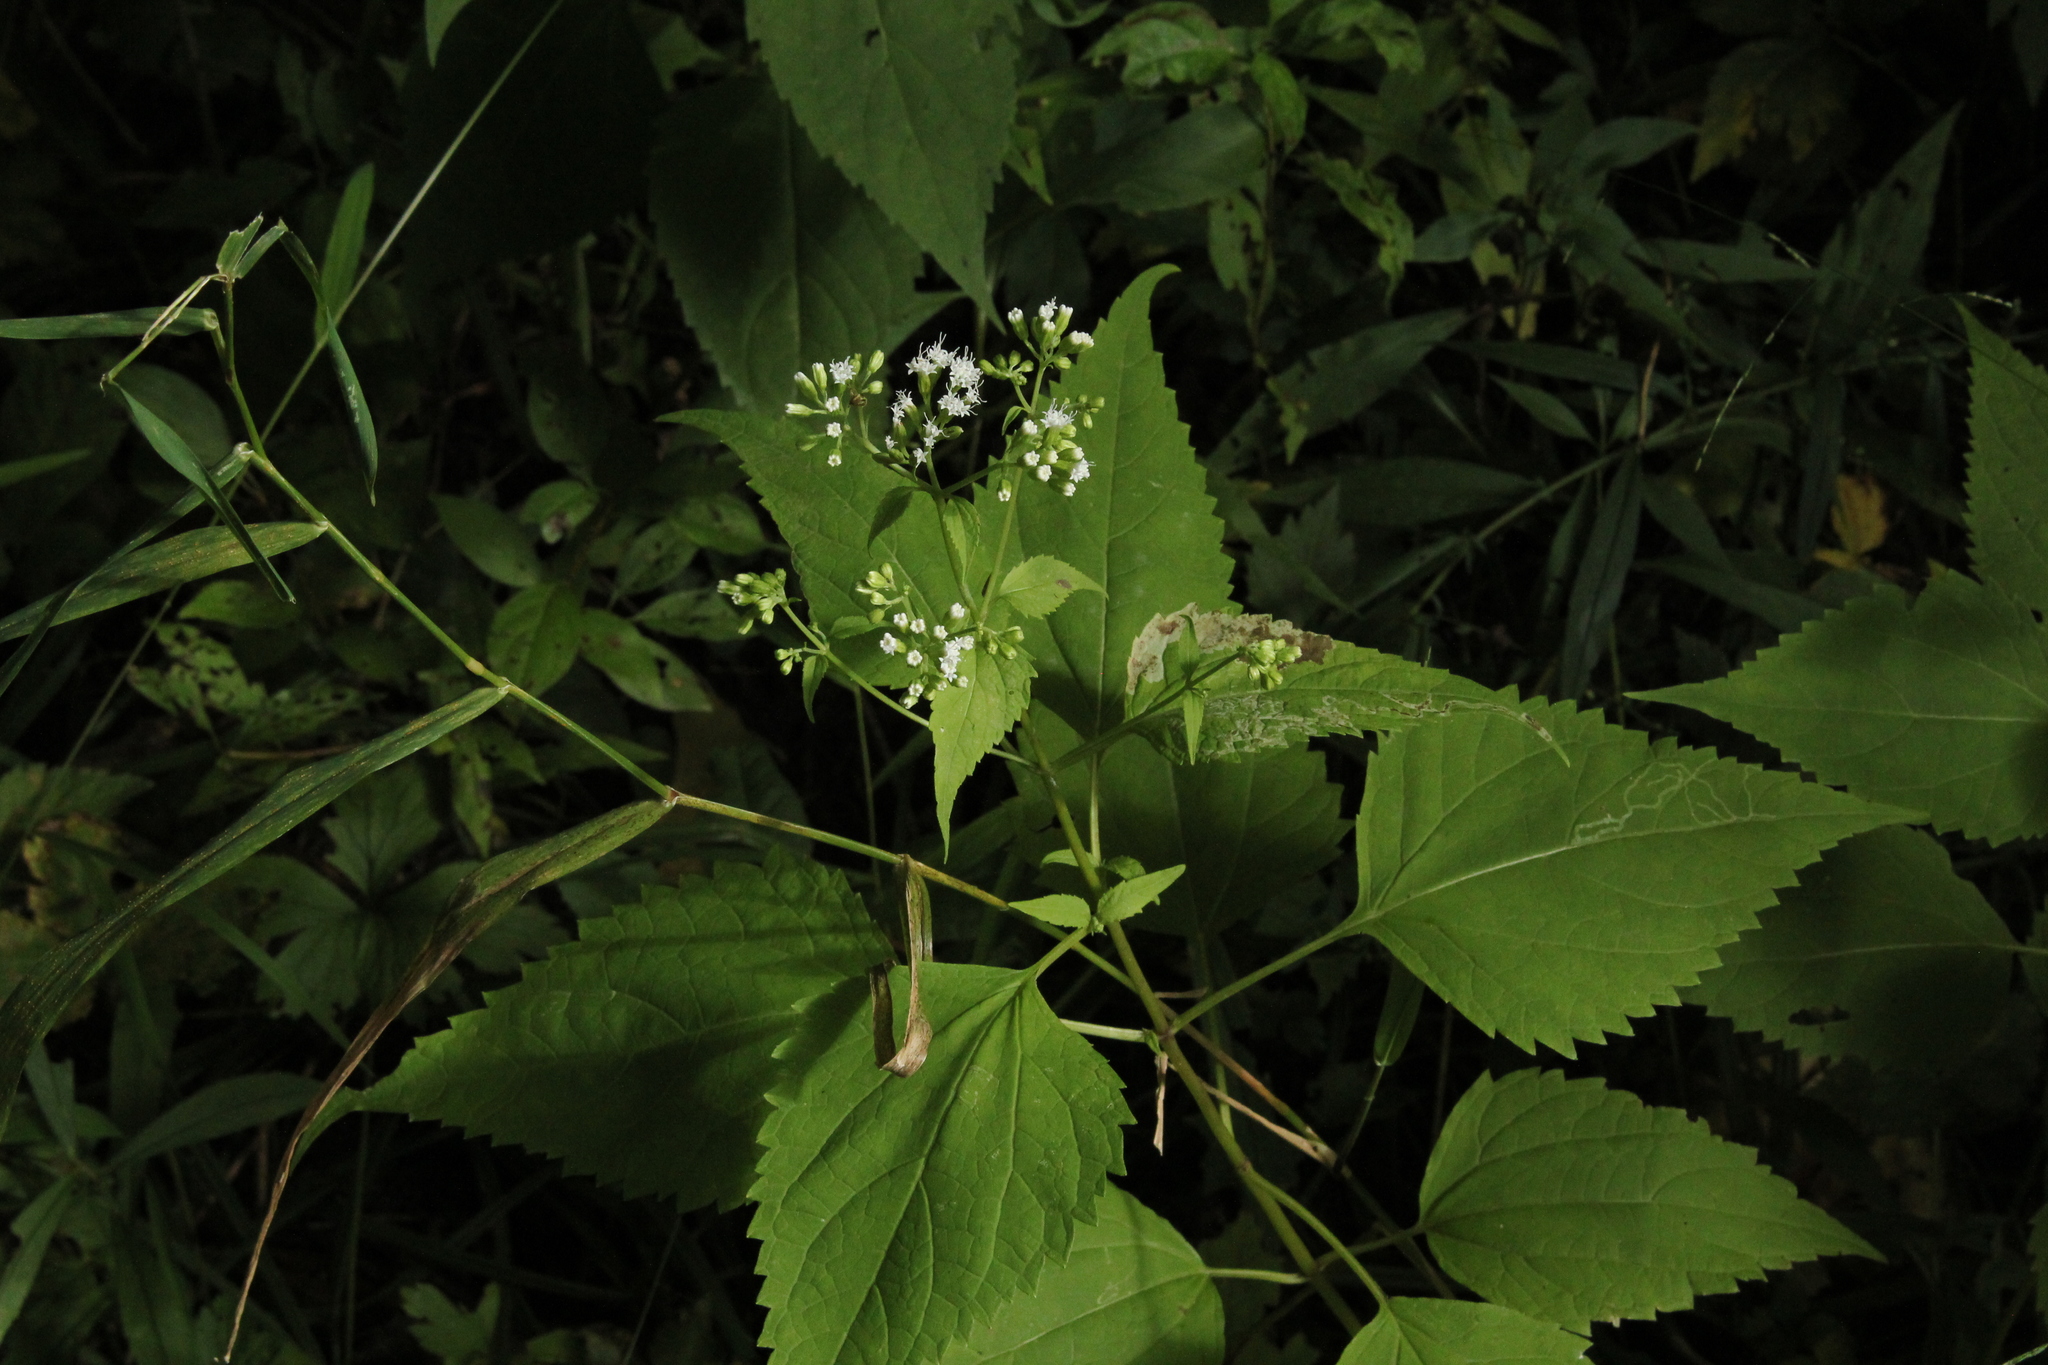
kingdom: Plantae
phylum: Tracheophyta
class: Magnoliopsida
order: Asterales
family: Asteraceae
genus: Ageratina
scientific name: Ageratina altissima
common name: White snakeroot
